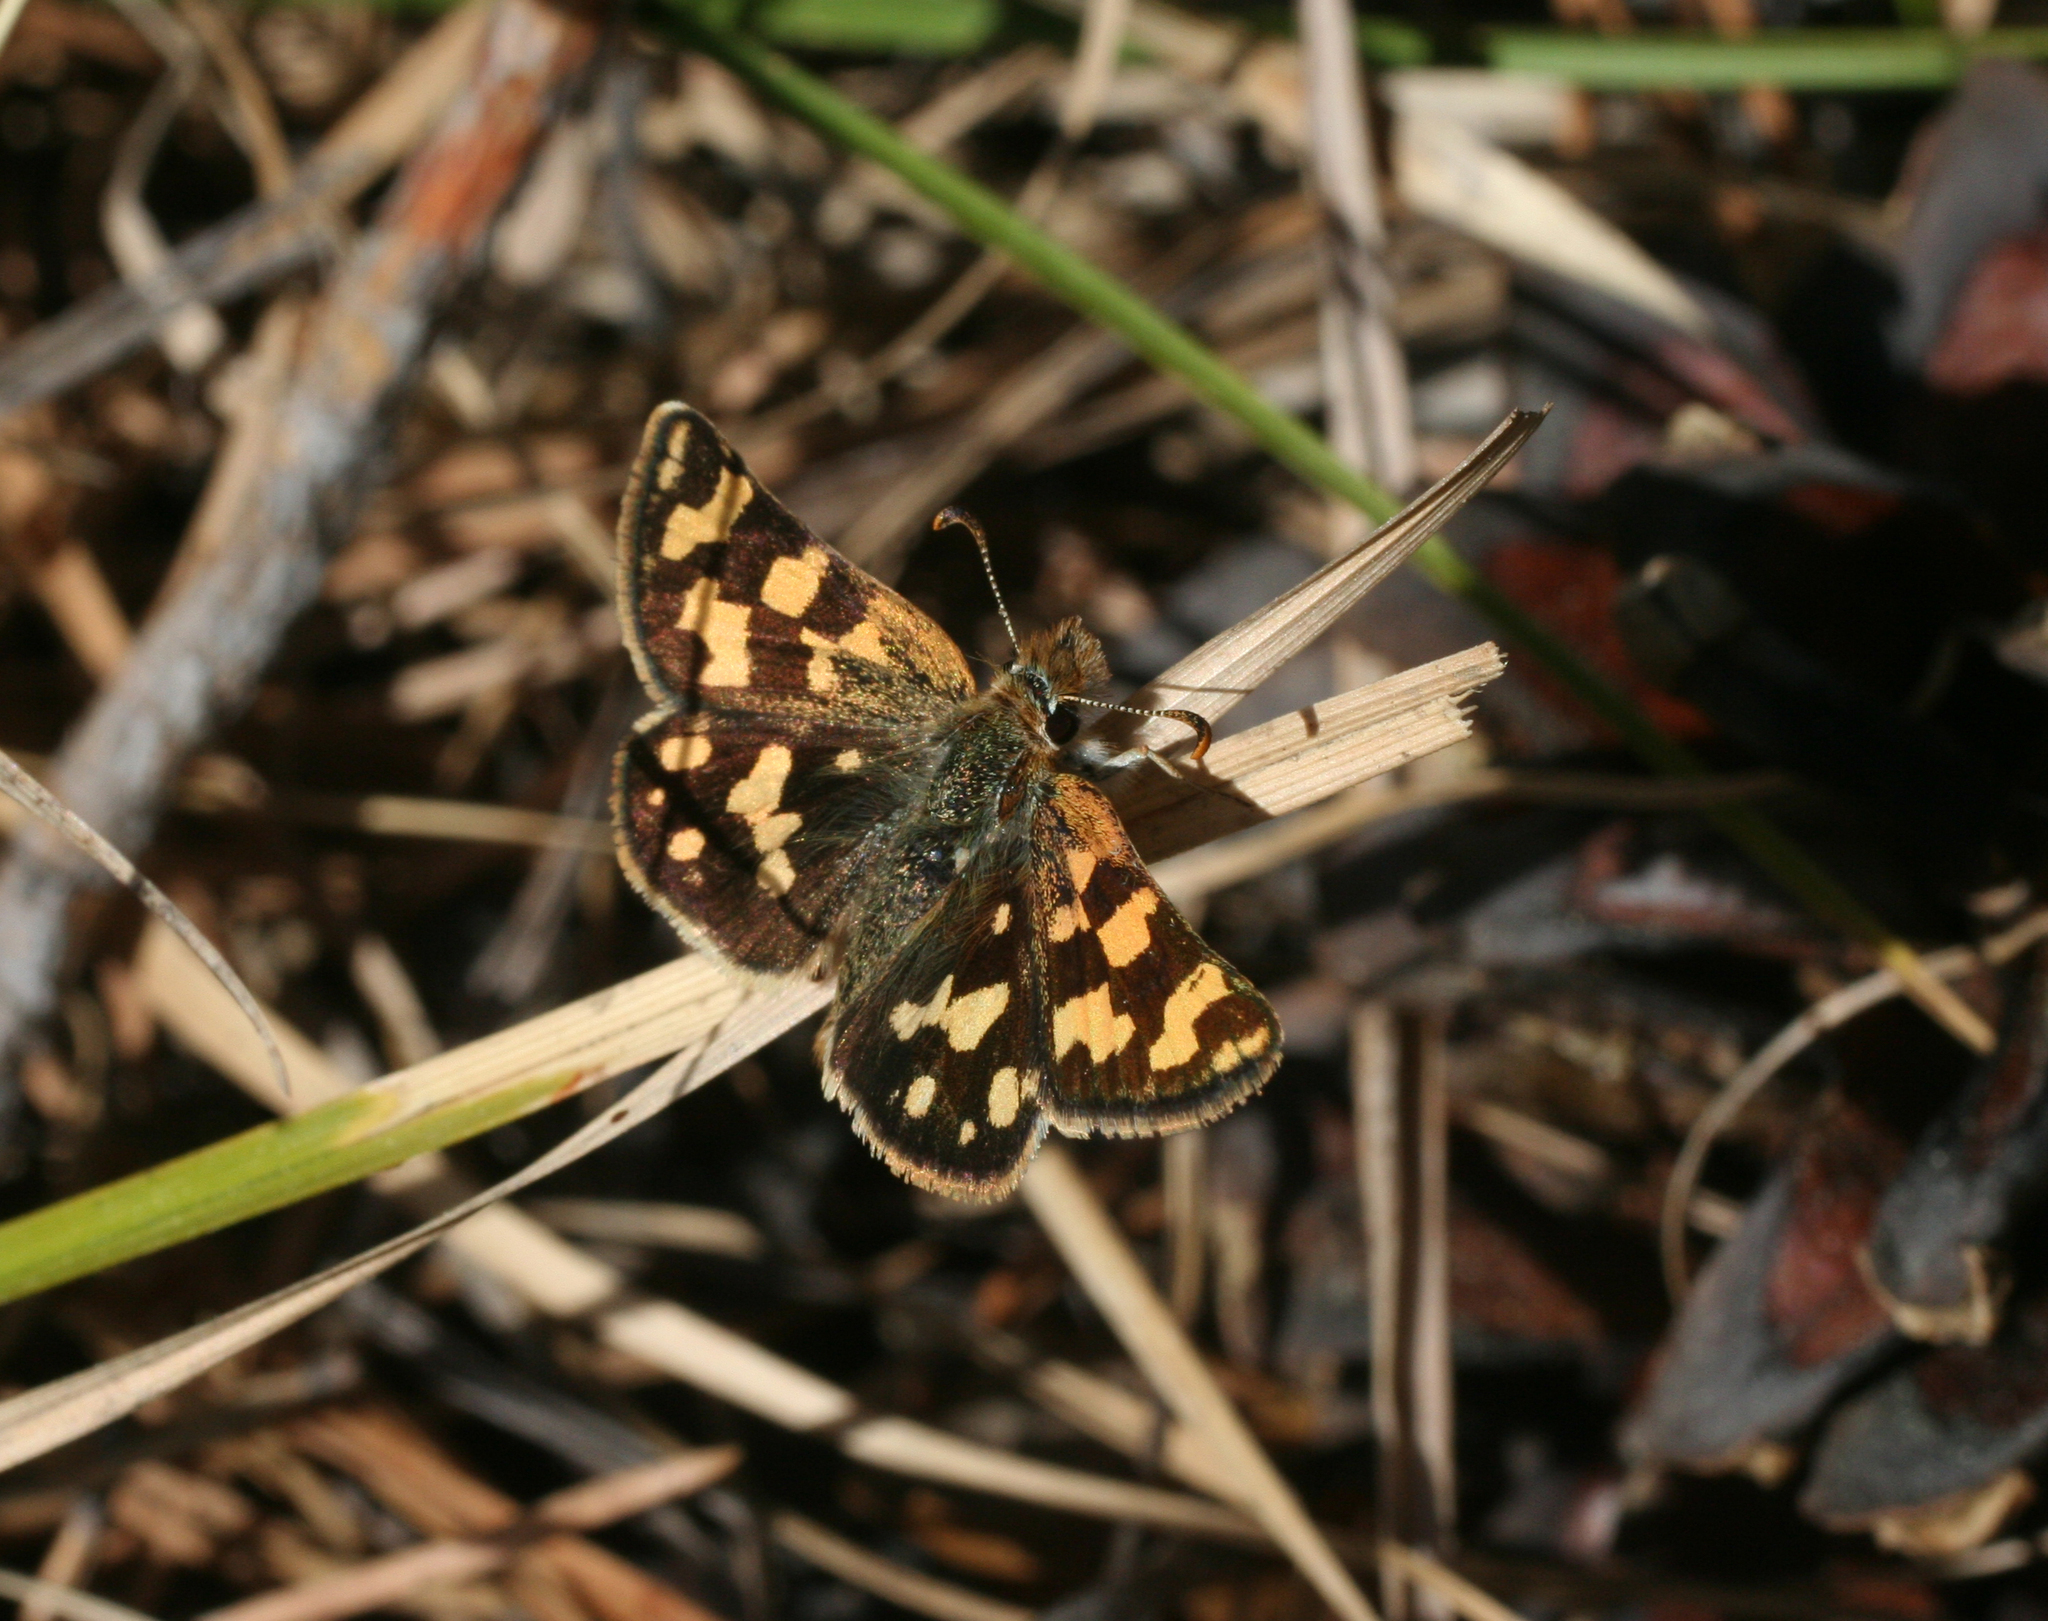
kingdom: Animalia
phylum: Arthropoda
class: Insecta
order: Lepidoptera
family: Hesperiidae
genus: Carterocephalus
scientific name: Carterocephalus argyrostigma
